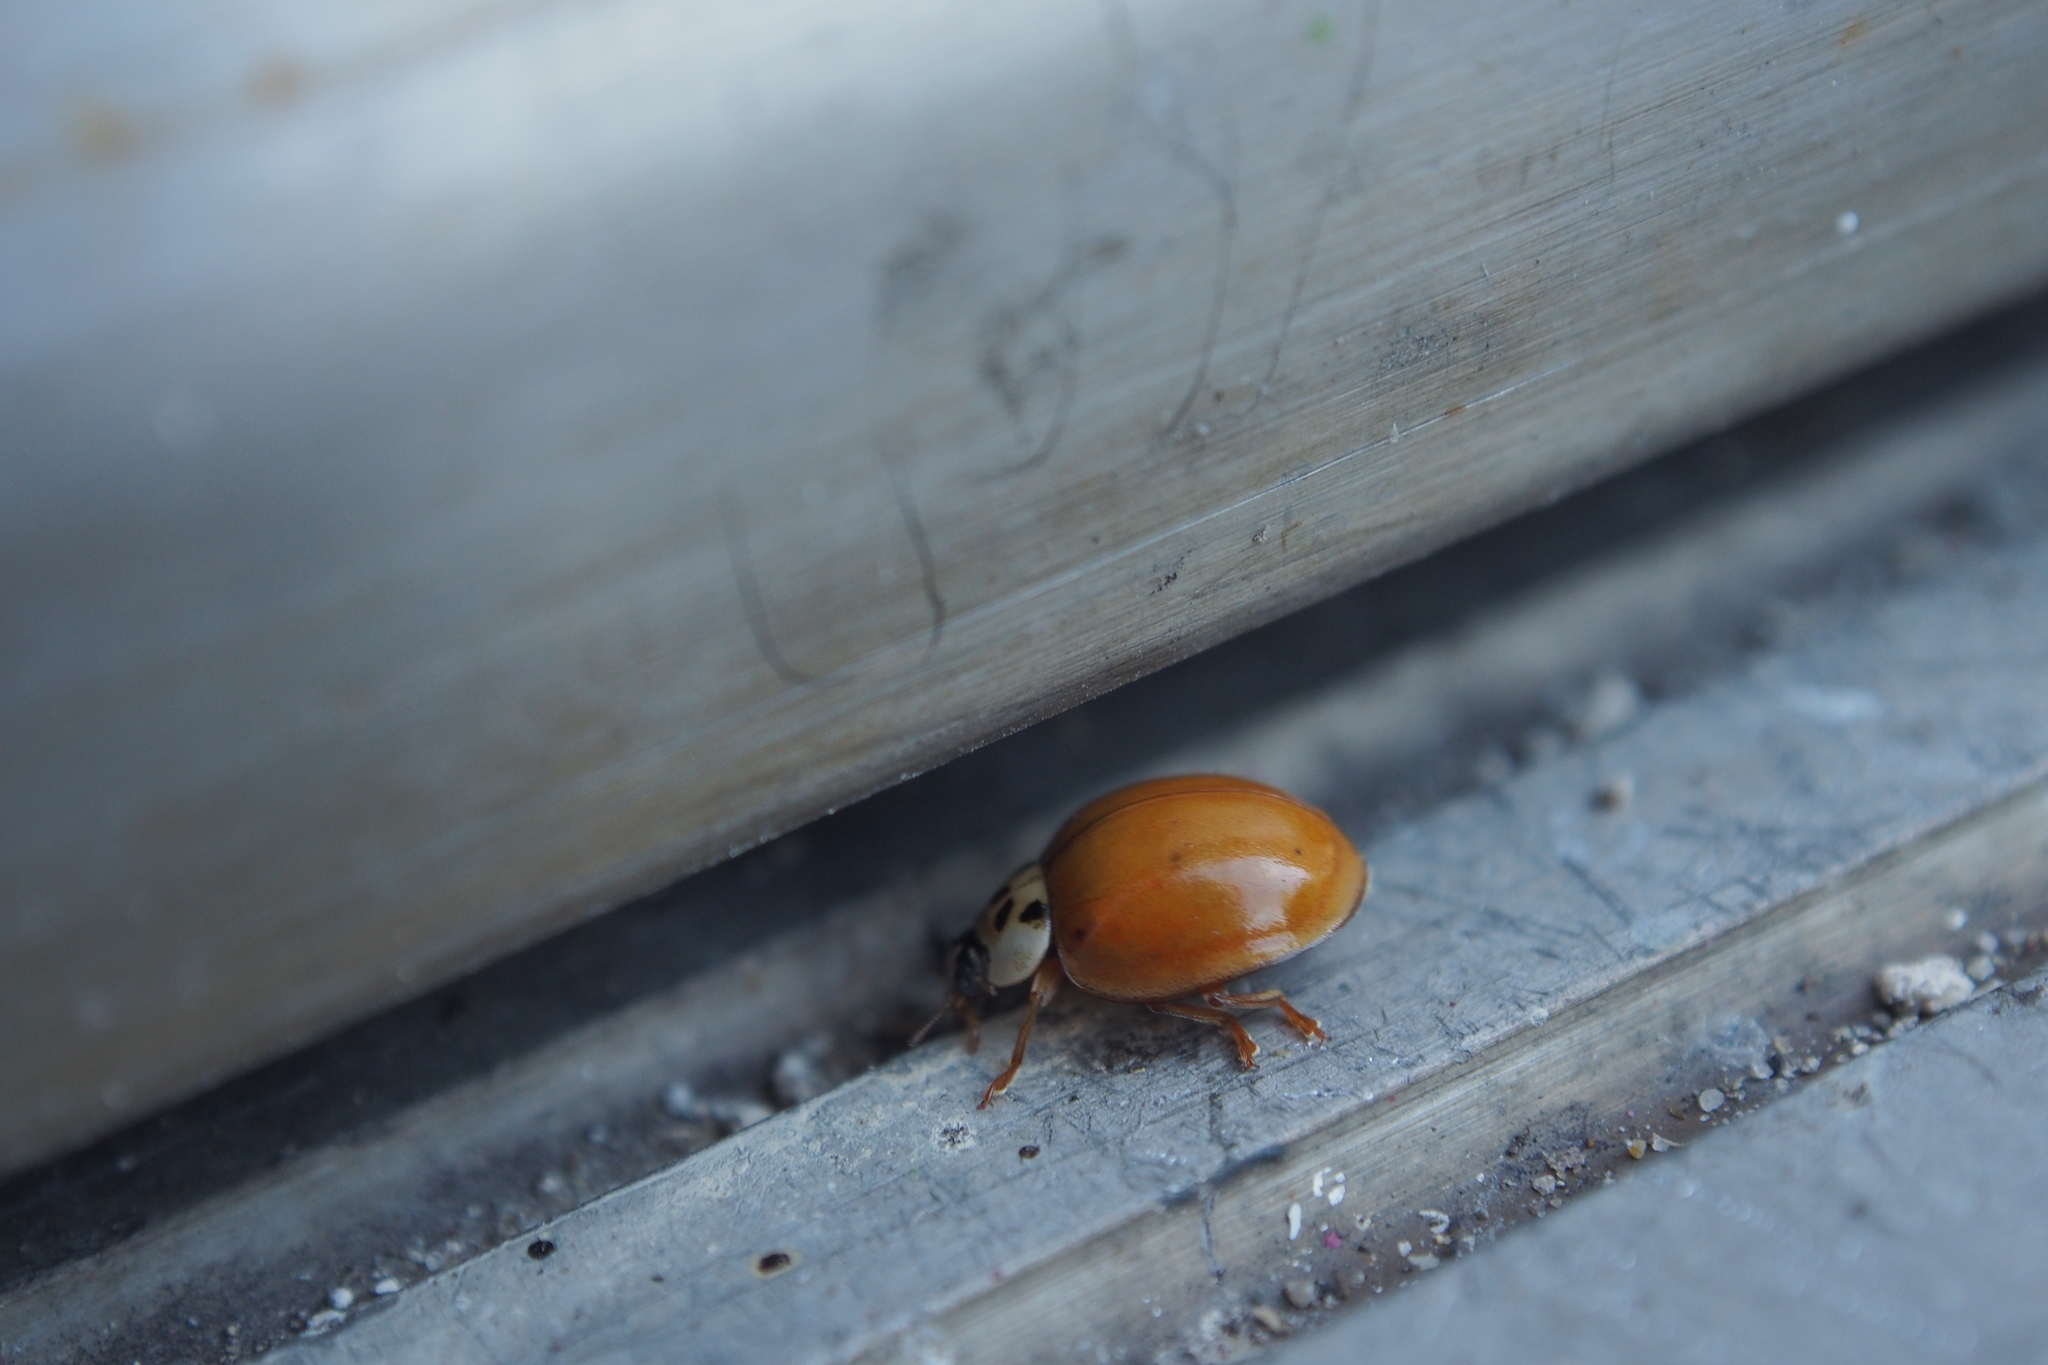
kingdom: Animalia
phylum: Arthropoda
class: Insecta
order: Coleoptera
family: Coccinellidae
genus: Harmonia
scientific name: Harmonia axyridis
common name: Harlequin ladybird
